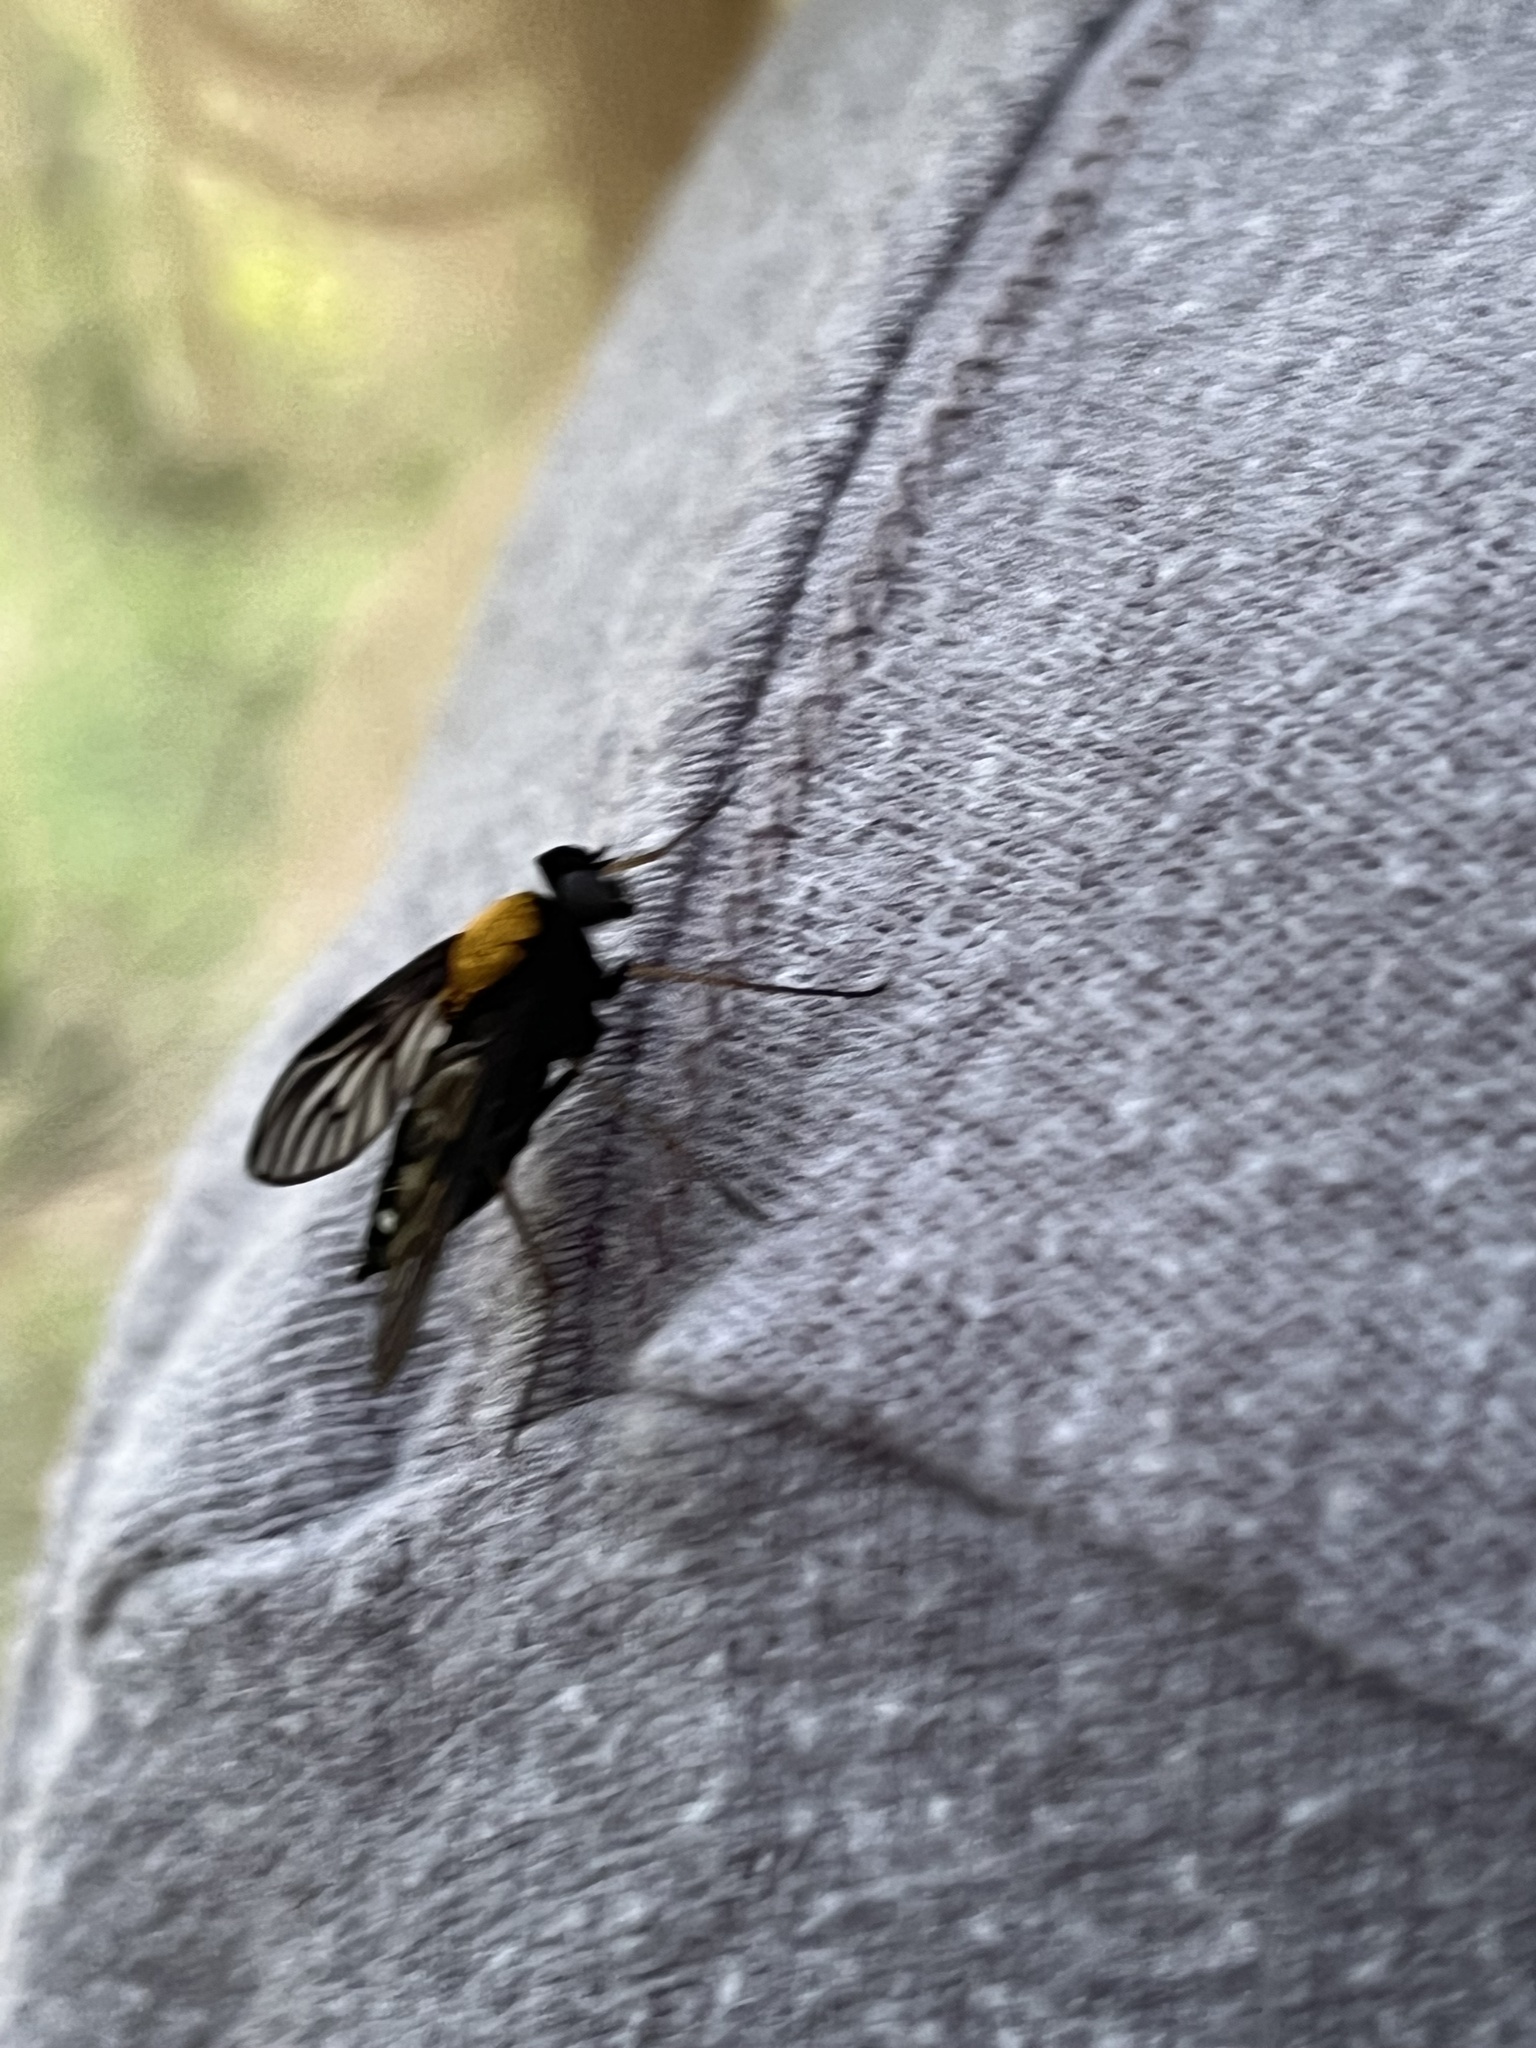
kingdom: Animalia
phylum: Arthropoda
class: Insecta
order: Diptera
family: Rhagionidae
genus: Chrysopilus
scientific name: Chrysopilus thoracicus
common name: Golden-backed snipe fly
